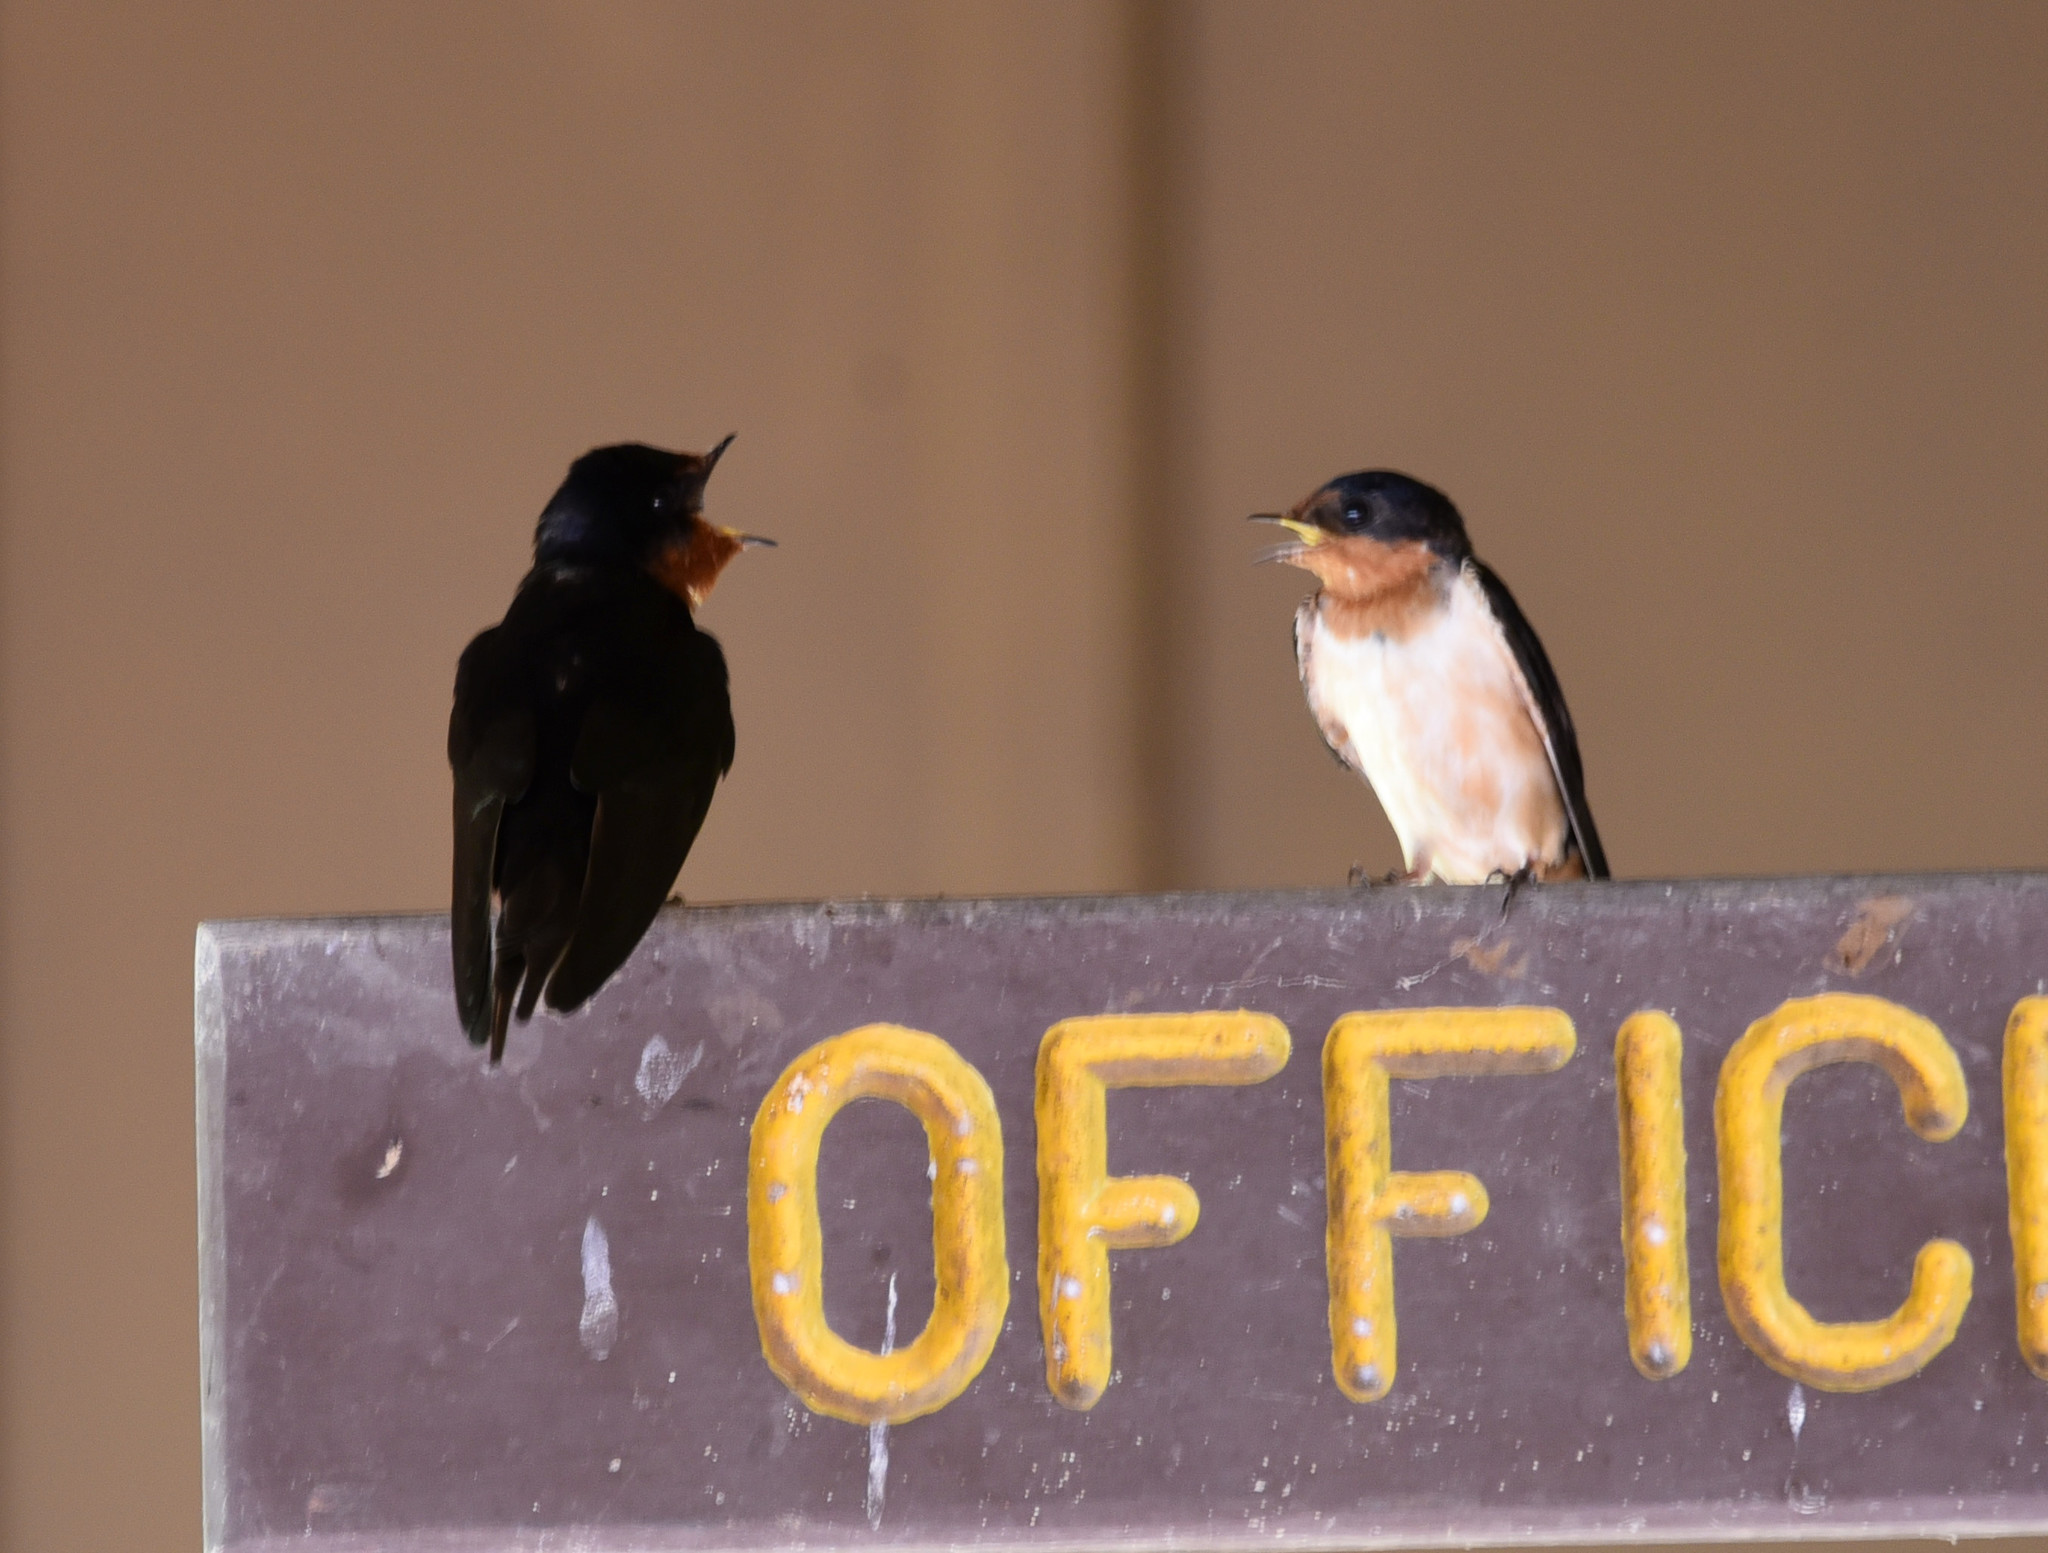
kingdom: Animalia
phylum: Chordata
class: Aves
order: Passeriformes
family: Hirundinidae
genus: Hirundo
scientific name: Hirundo rustica
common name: Barn swallow
